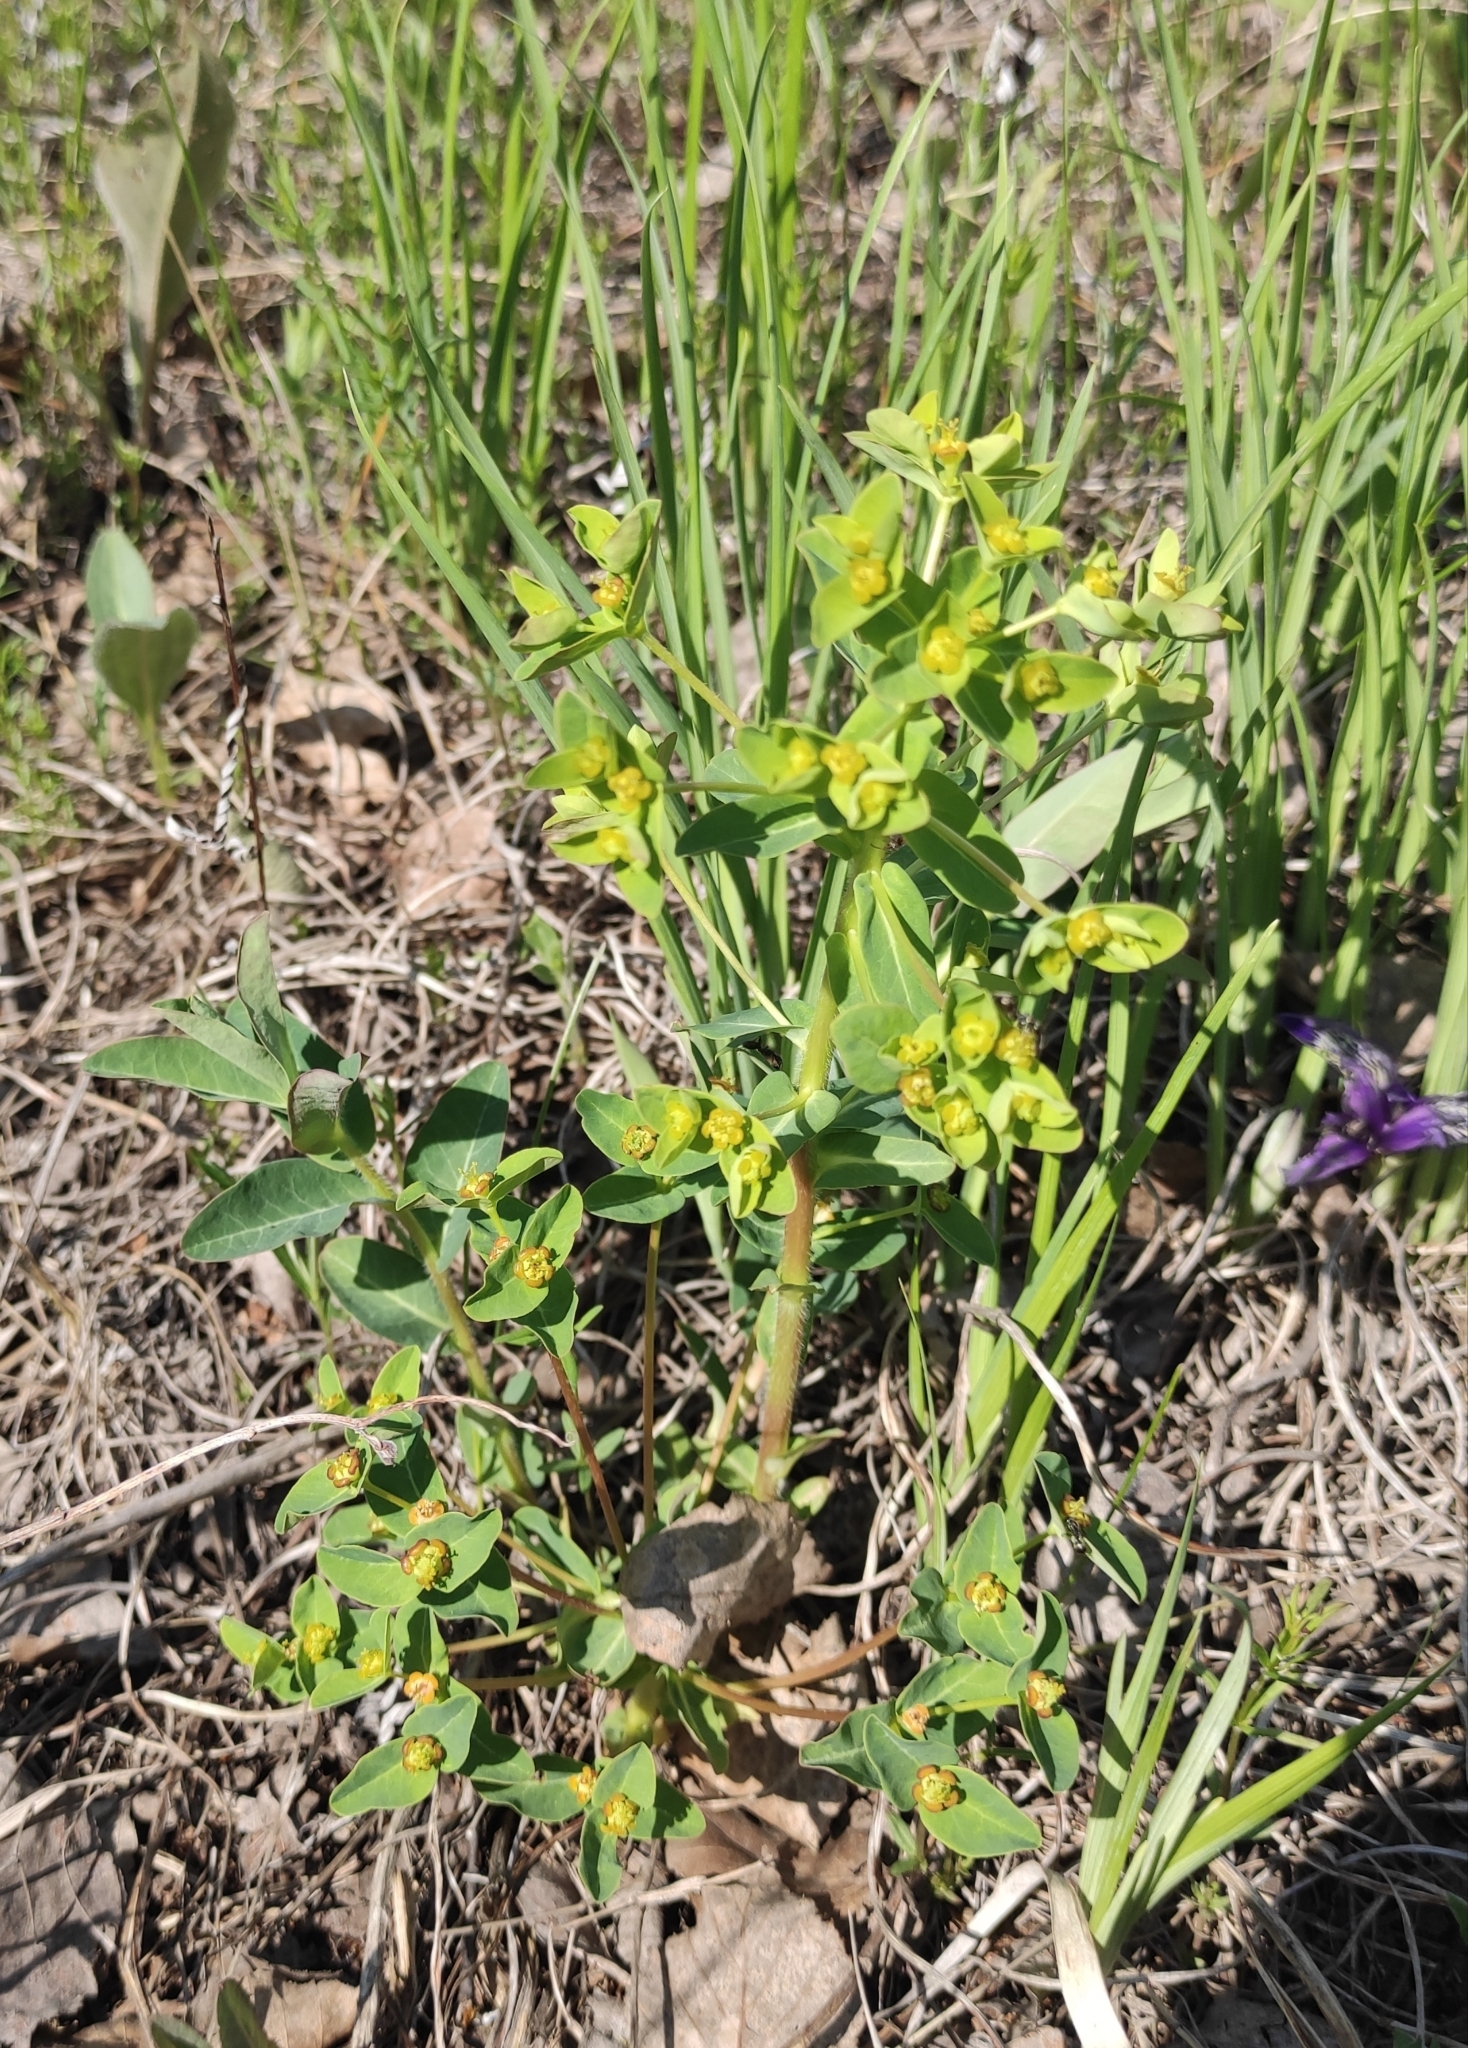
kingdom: Plantae
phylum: Tracheophyta
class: Magnoliopsida
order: Malpighiales
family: Euphorbiaceae
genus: Euphorbia
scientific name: Euphorbia jenisseiensis
